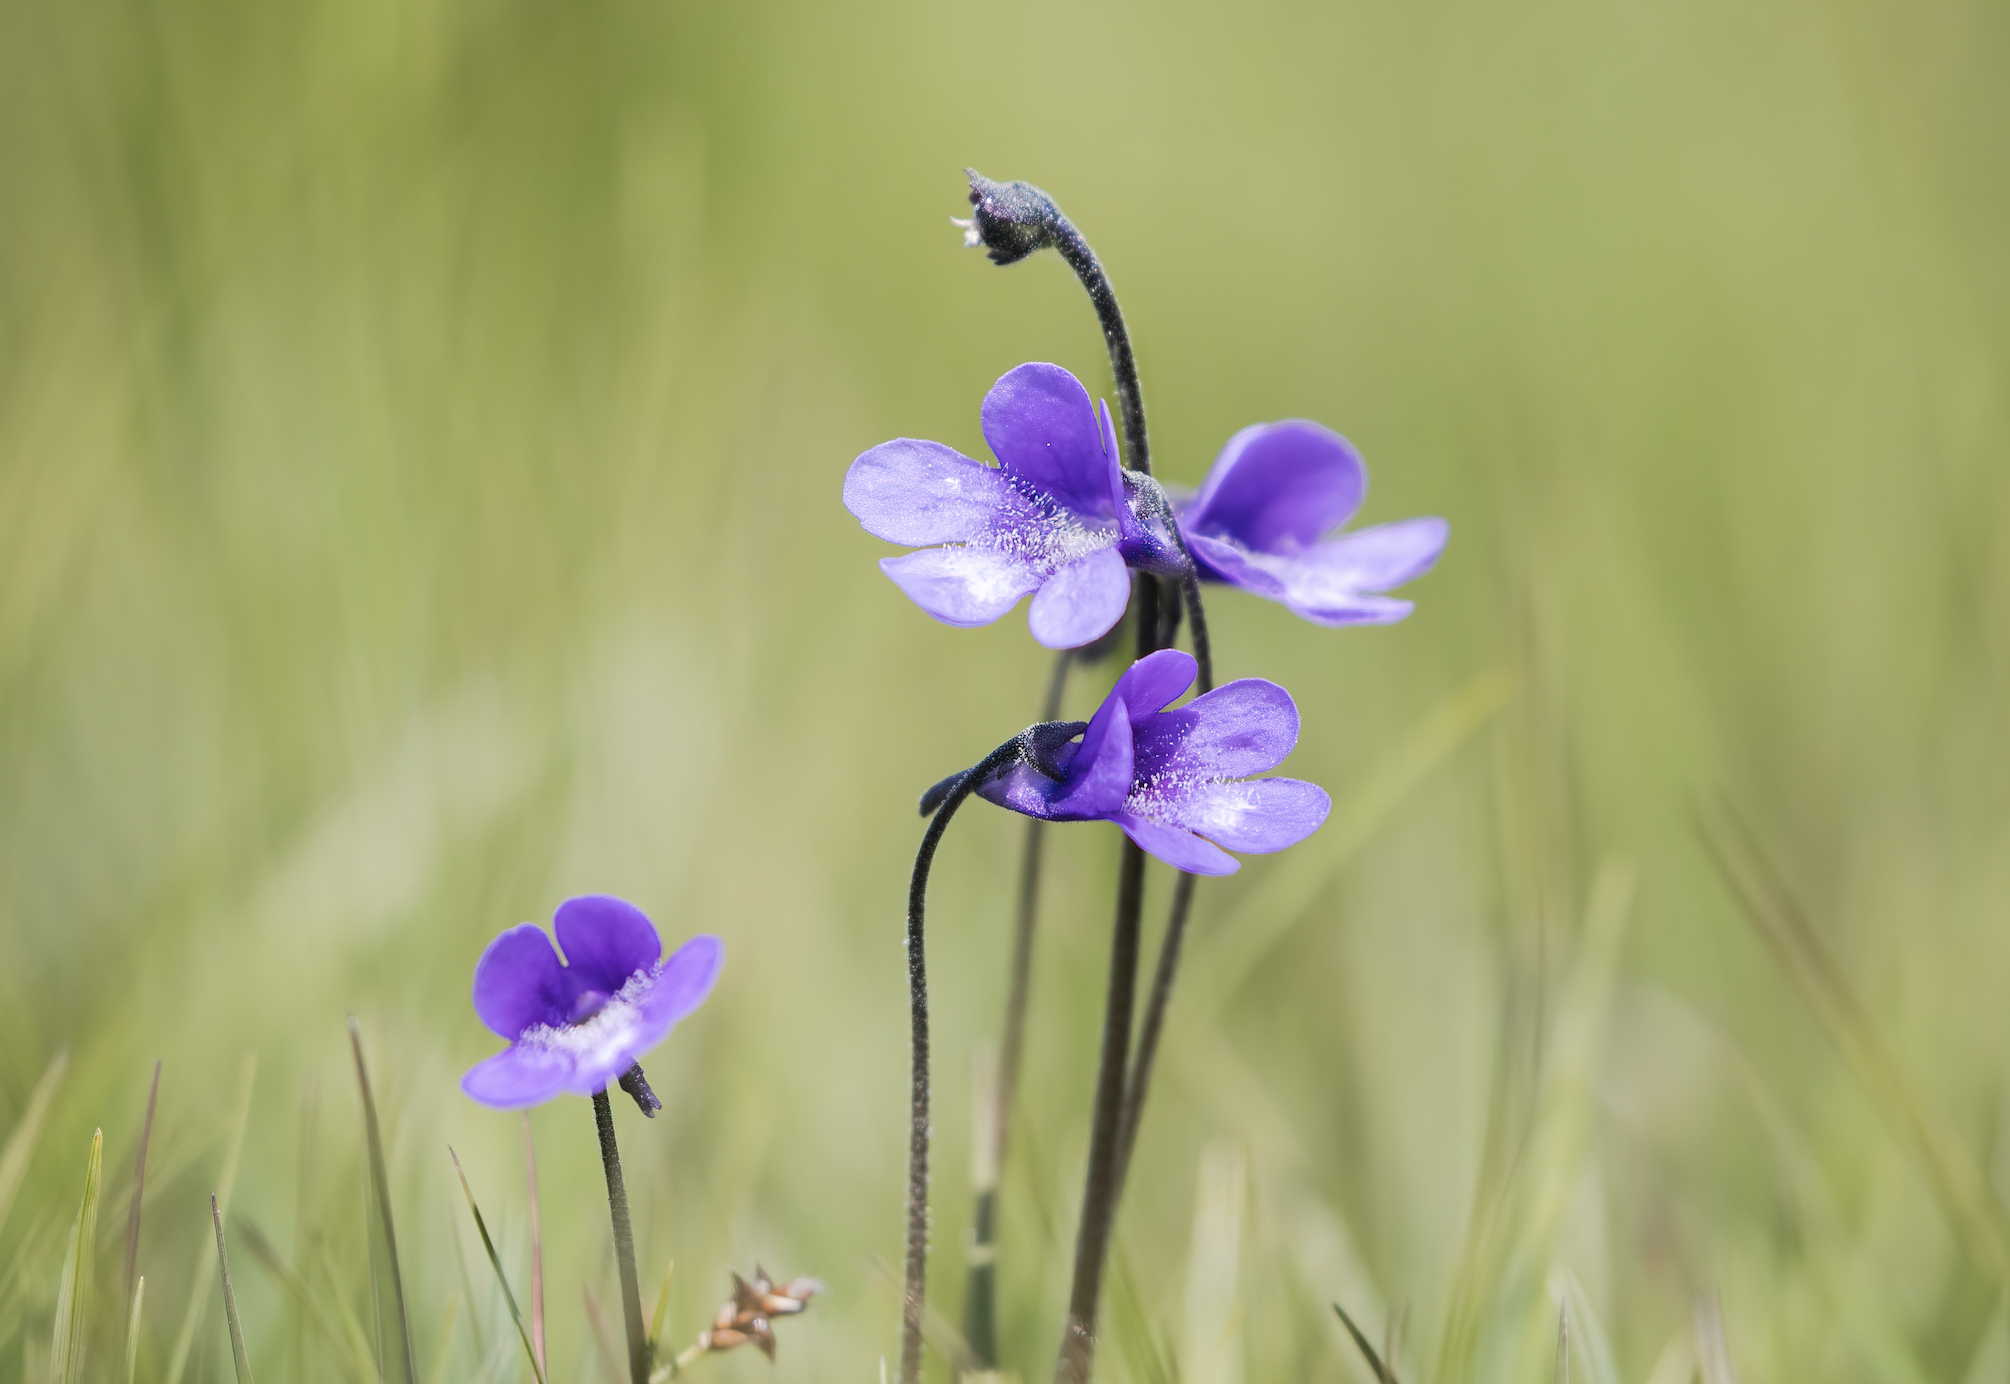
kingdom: Plantae
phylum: Tracheophyta
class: Magnoliopsida
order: Lamiales
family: Lentibulariaceae
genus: Pinguicula
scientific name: Pinguicula vulgaris
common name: Common butterwort
